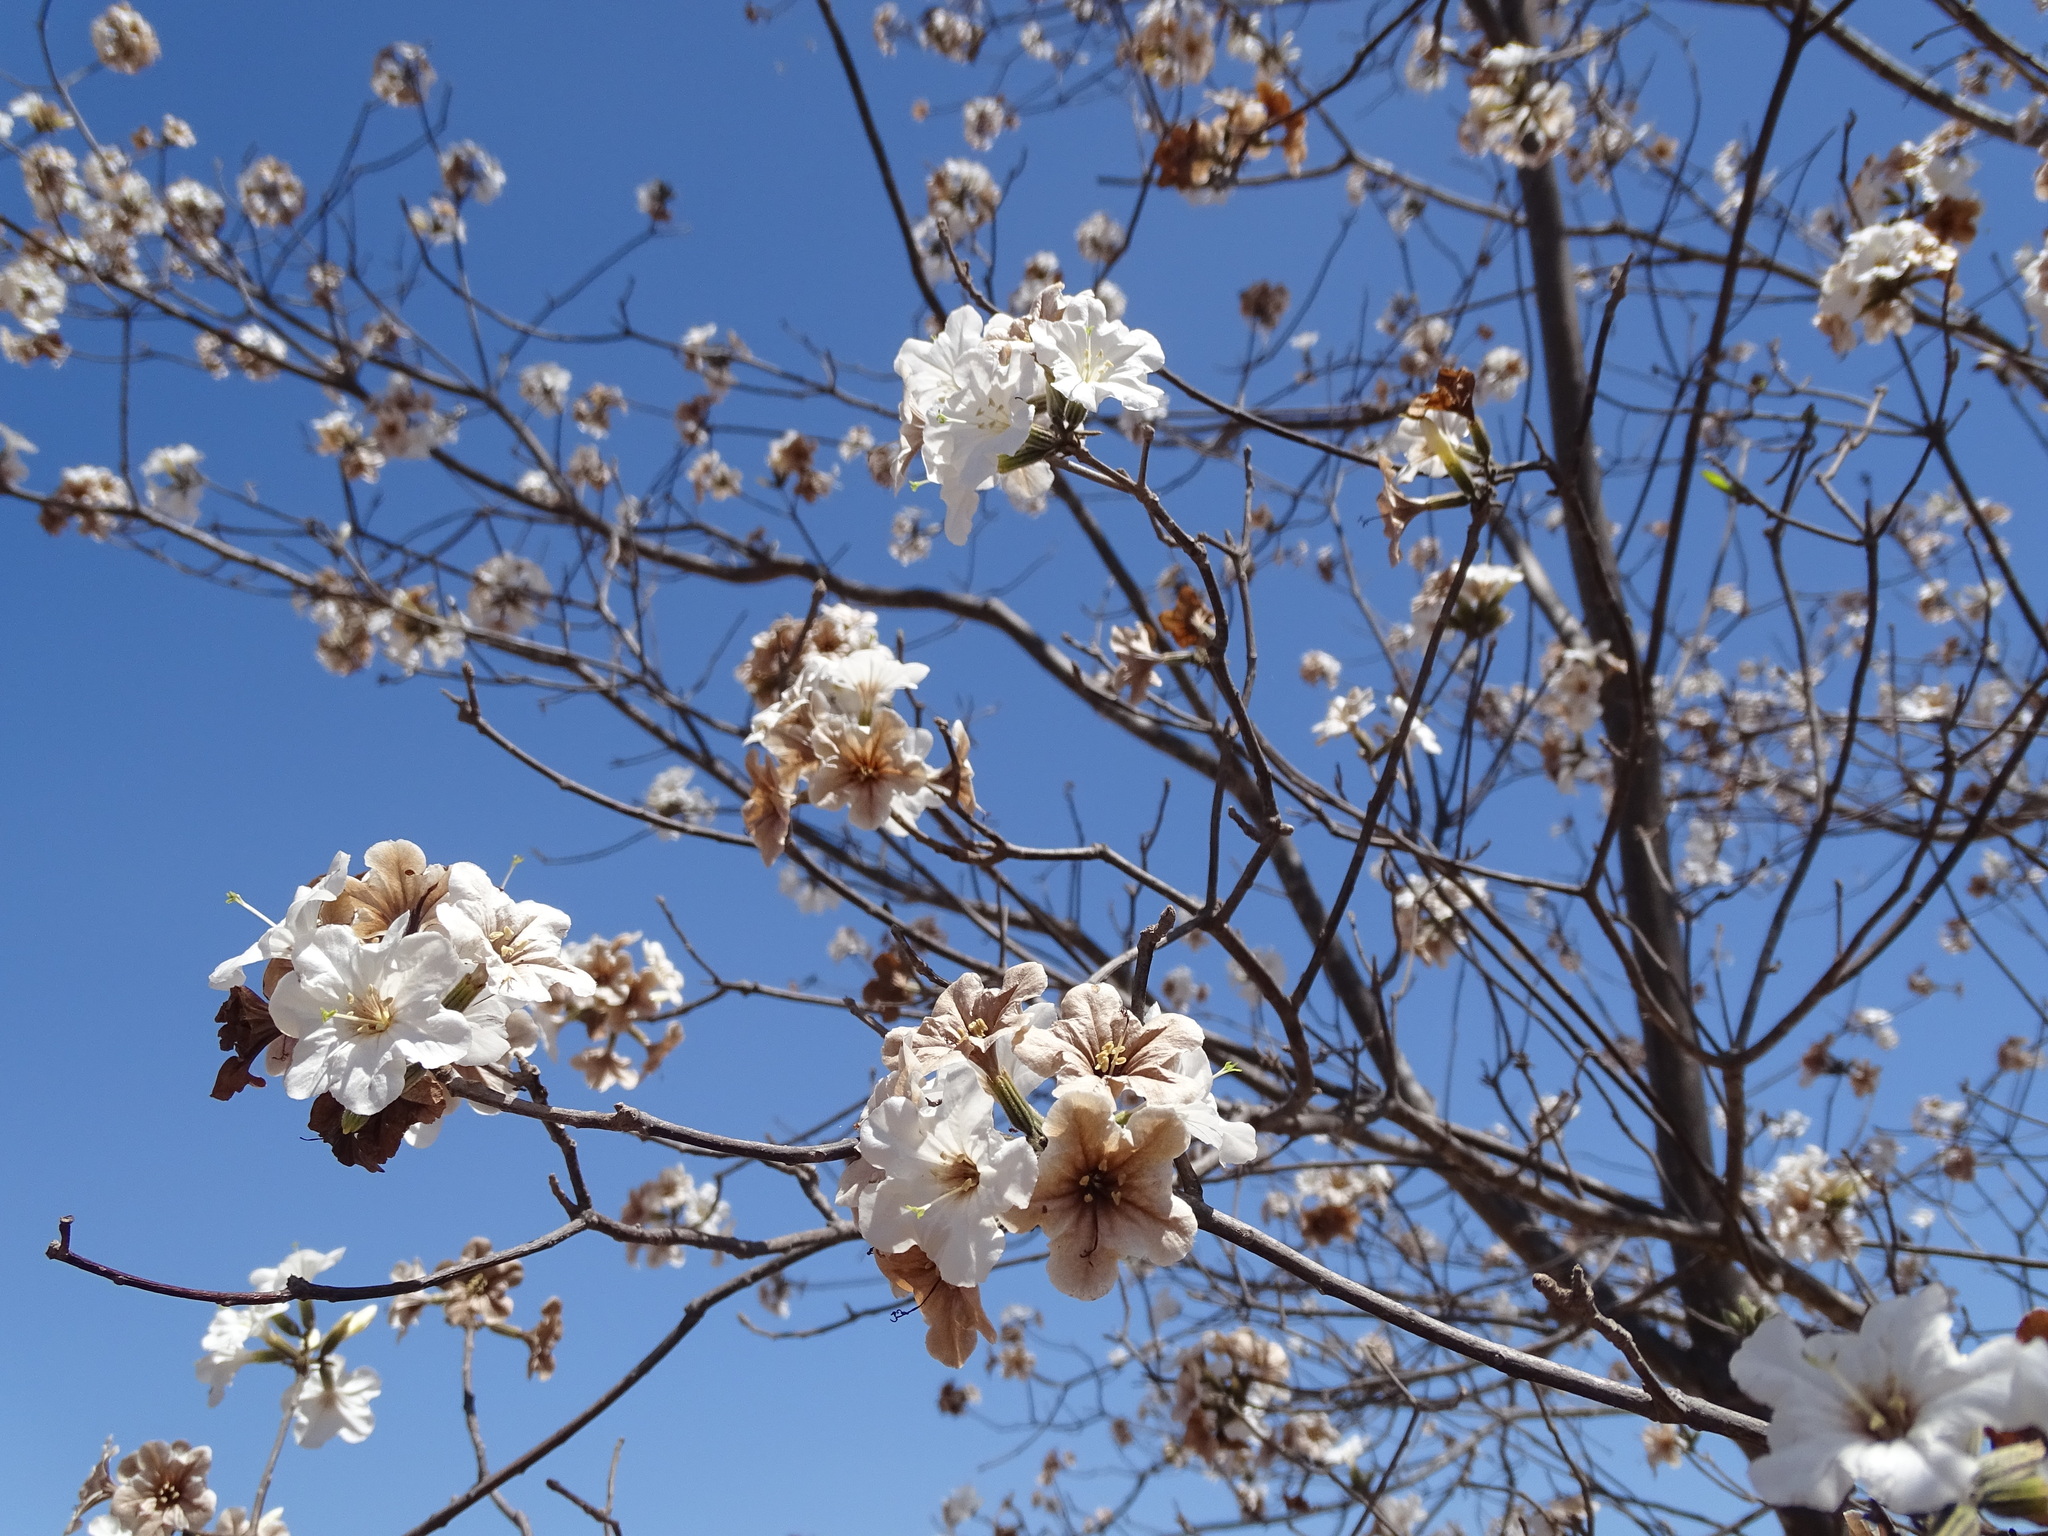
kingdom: Plantae
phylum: Tracheophyta
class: Magnoliopsida
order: Boraginales
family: Cordiaceae
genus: Cordia
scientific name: Cordia sonorae
